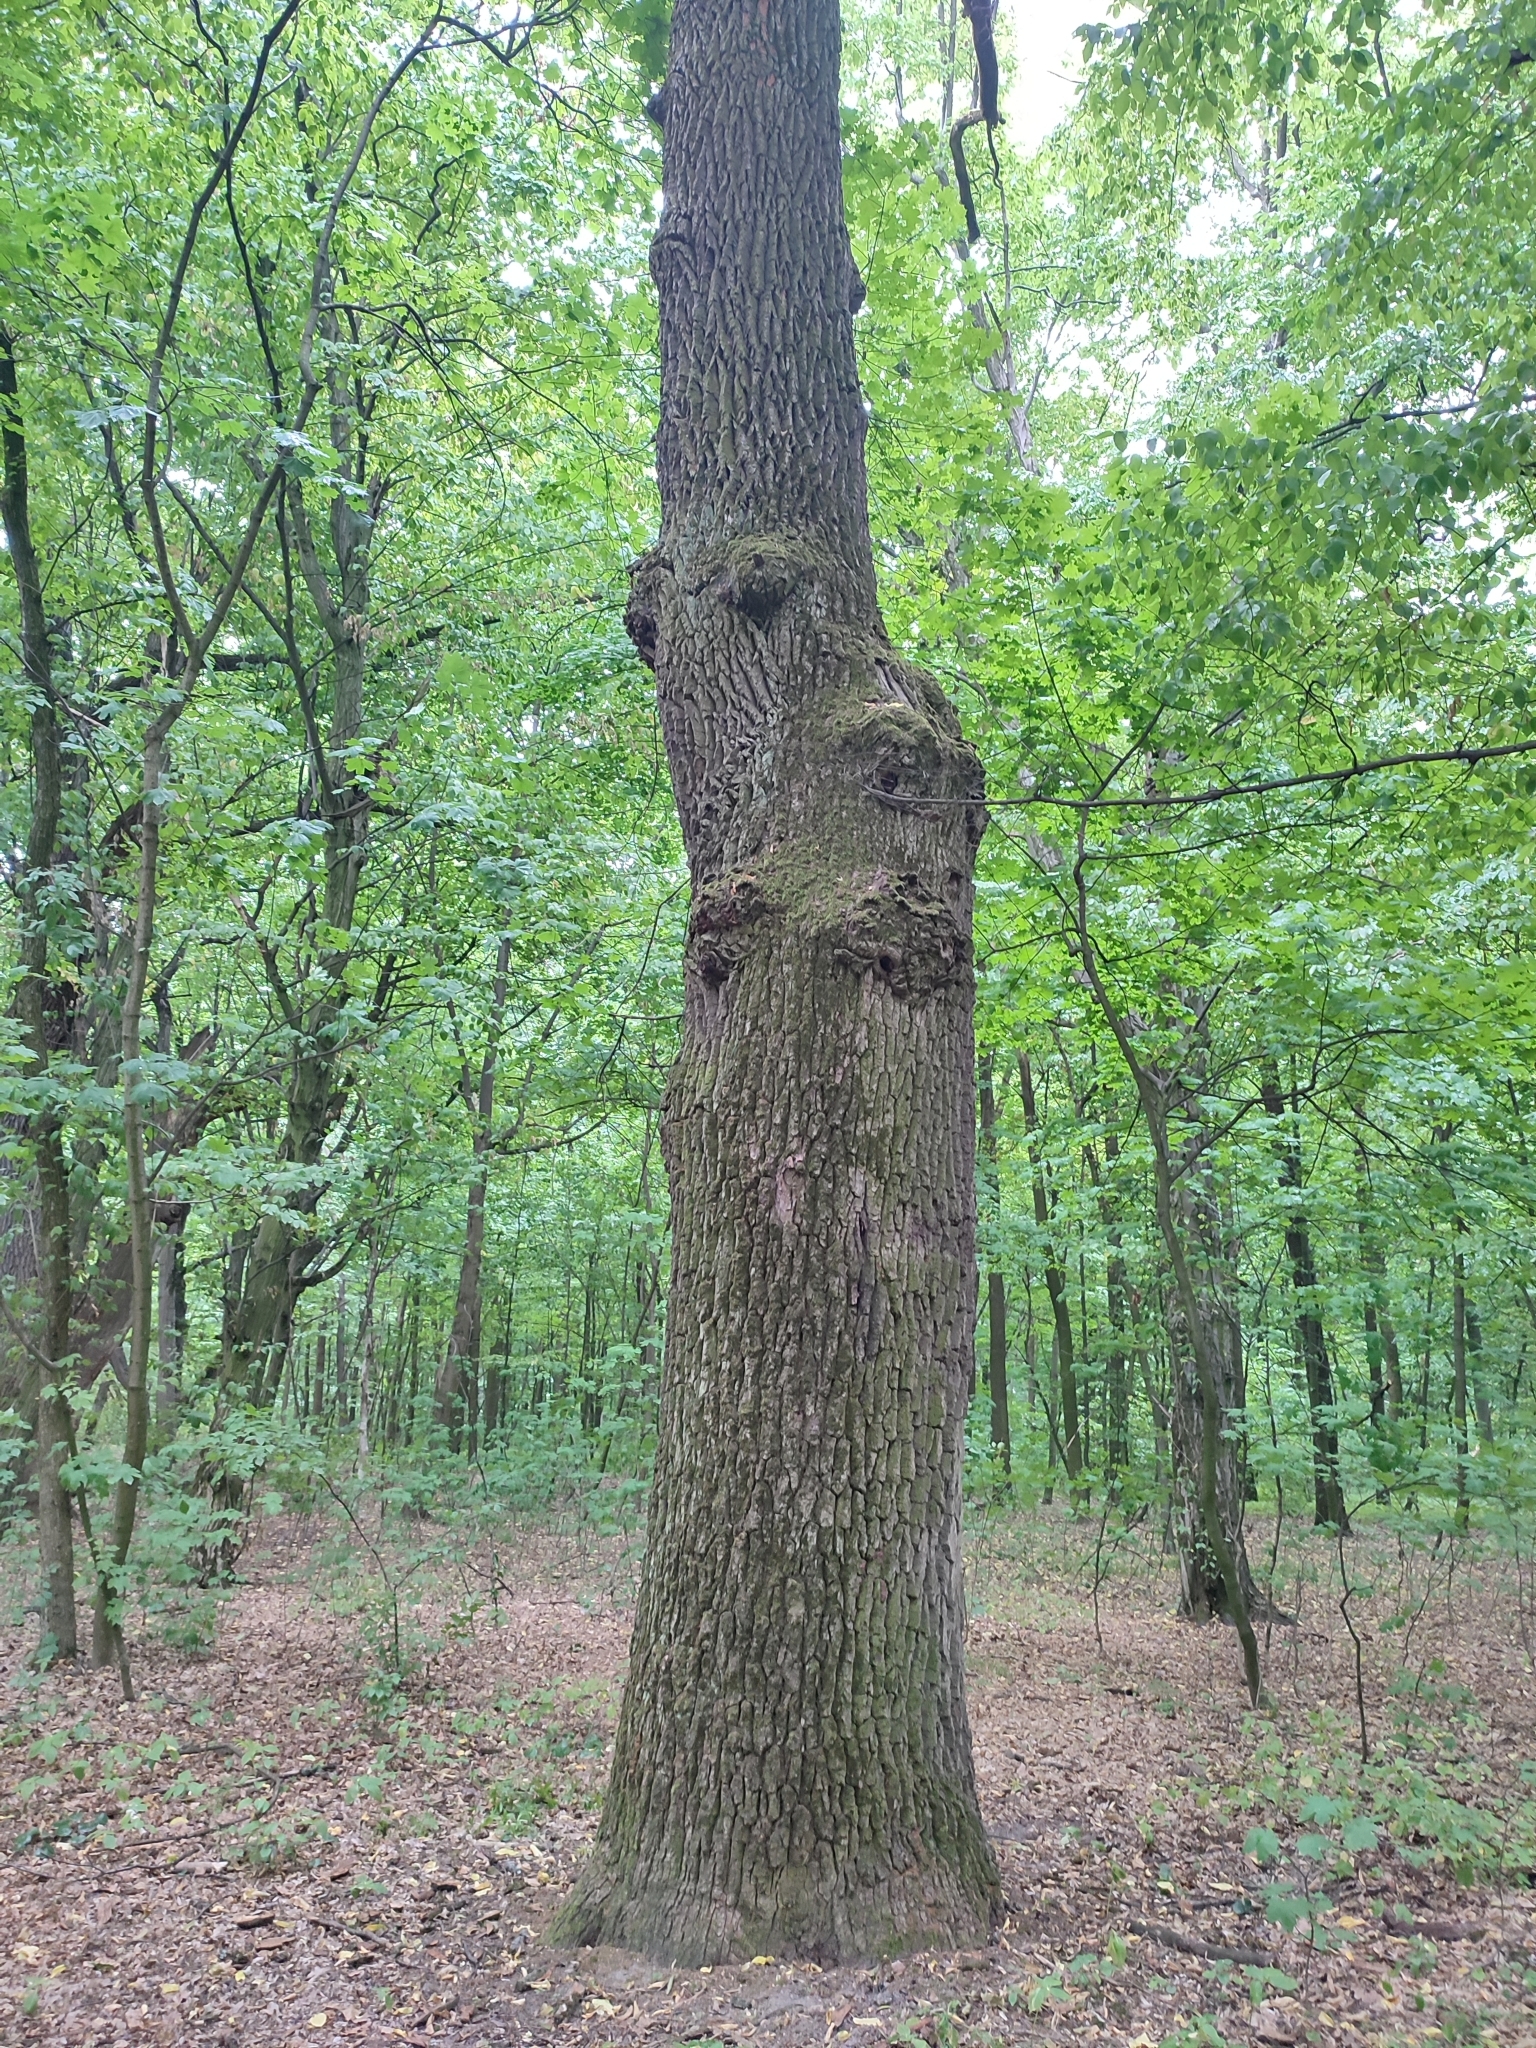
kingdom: Plantae
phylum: Tracheophyta
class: Magnoliopsida
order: Fagales
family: Fagaceae
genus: Quercus
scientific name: Quercus robur
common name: Pedunculate oak
